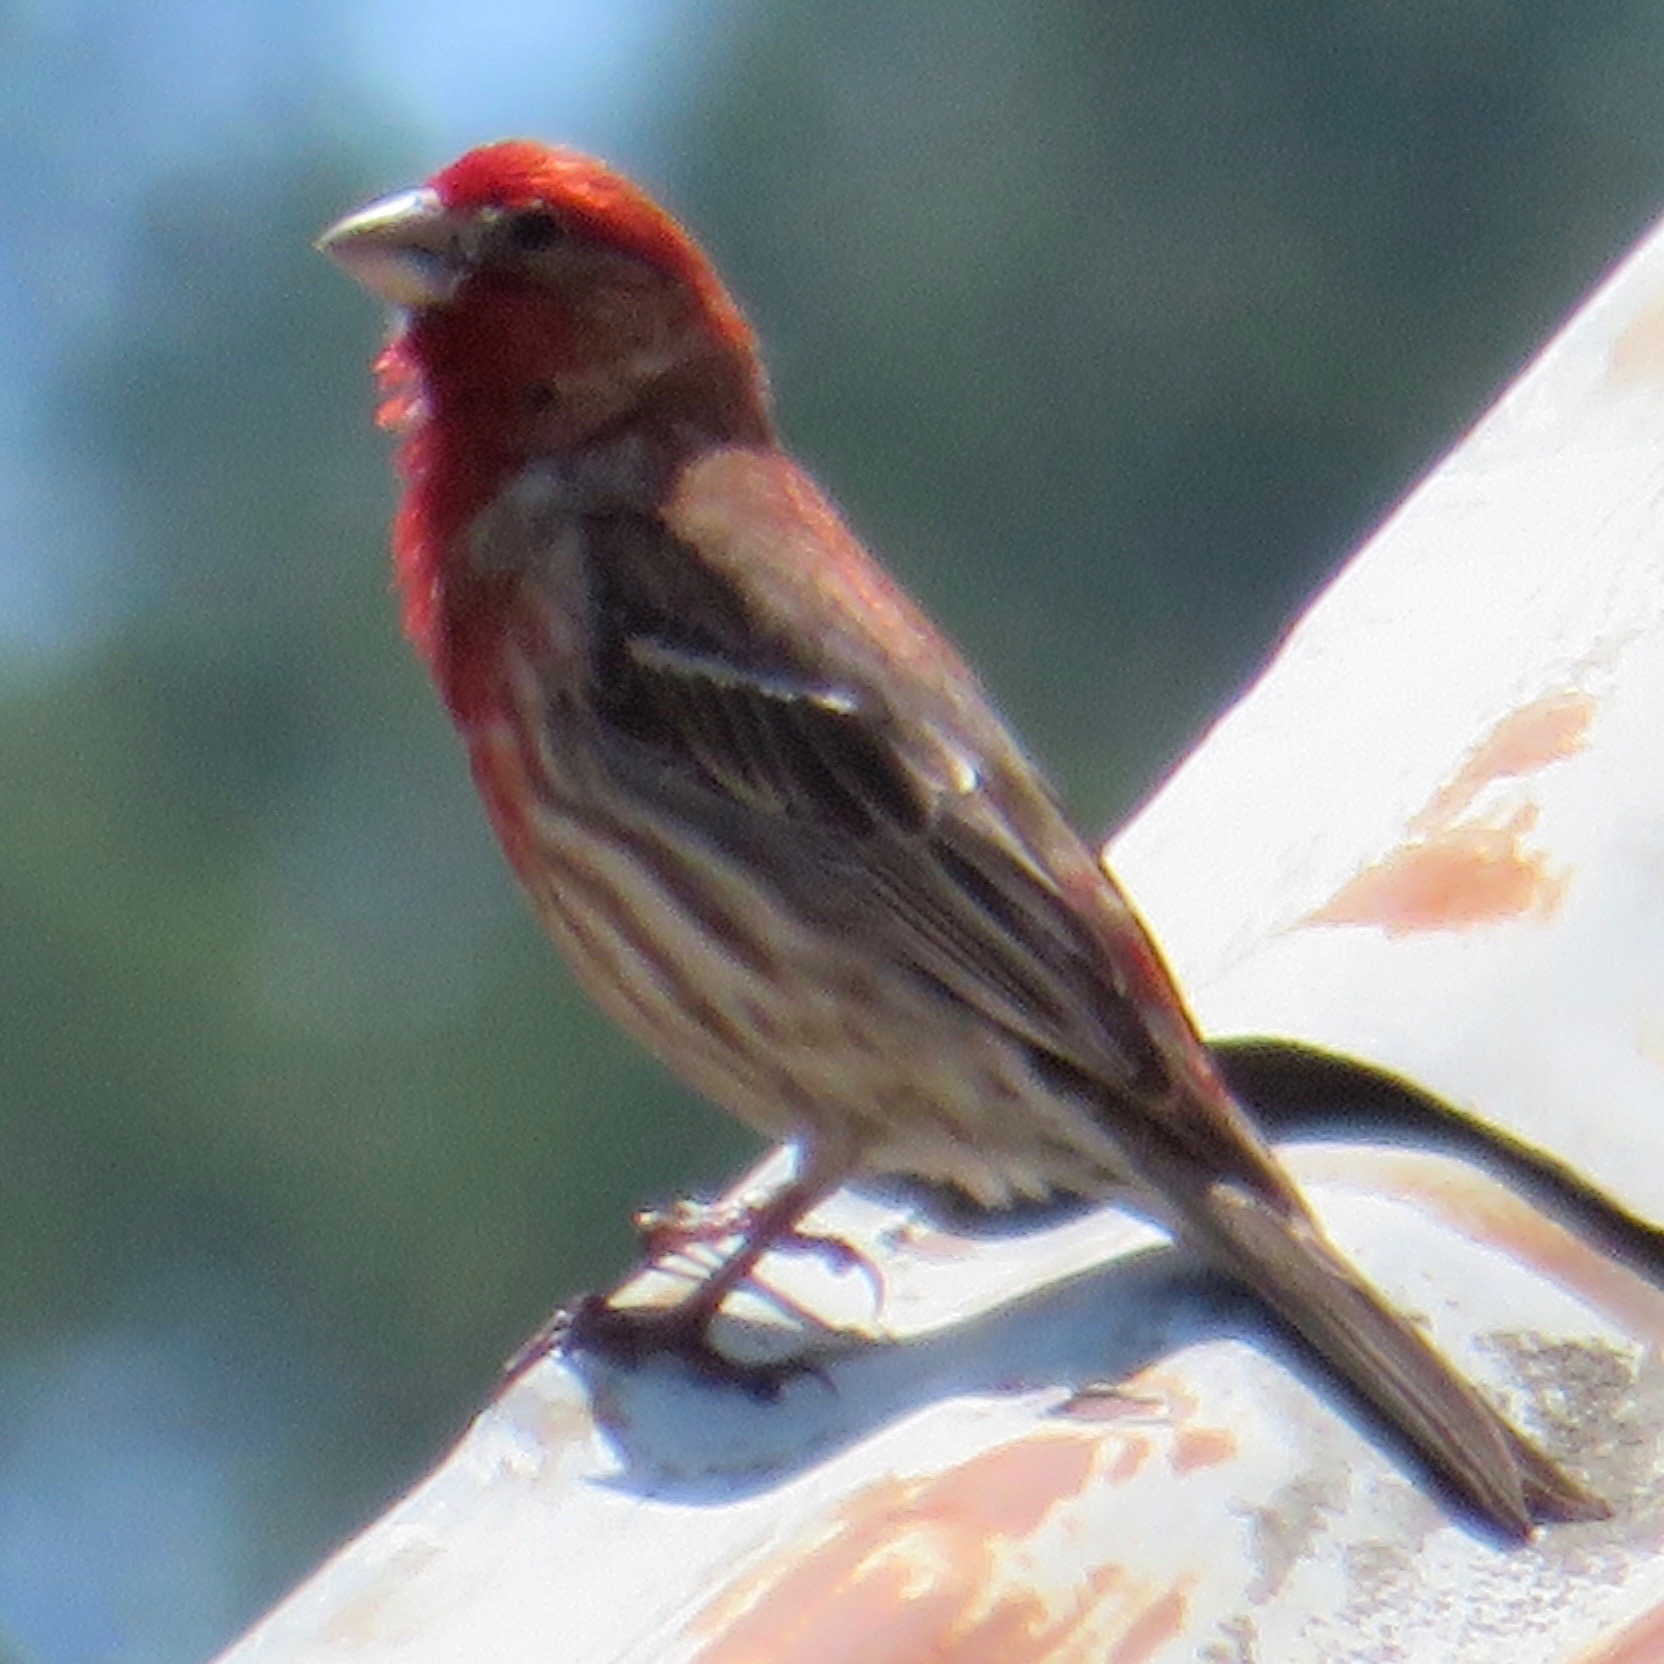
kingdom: Animalia
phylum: Chordata
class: Aves
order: Passeriformes
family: Fringillidae
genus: Haemorhous
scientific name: Haemorhous mexicanus
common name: House finch
